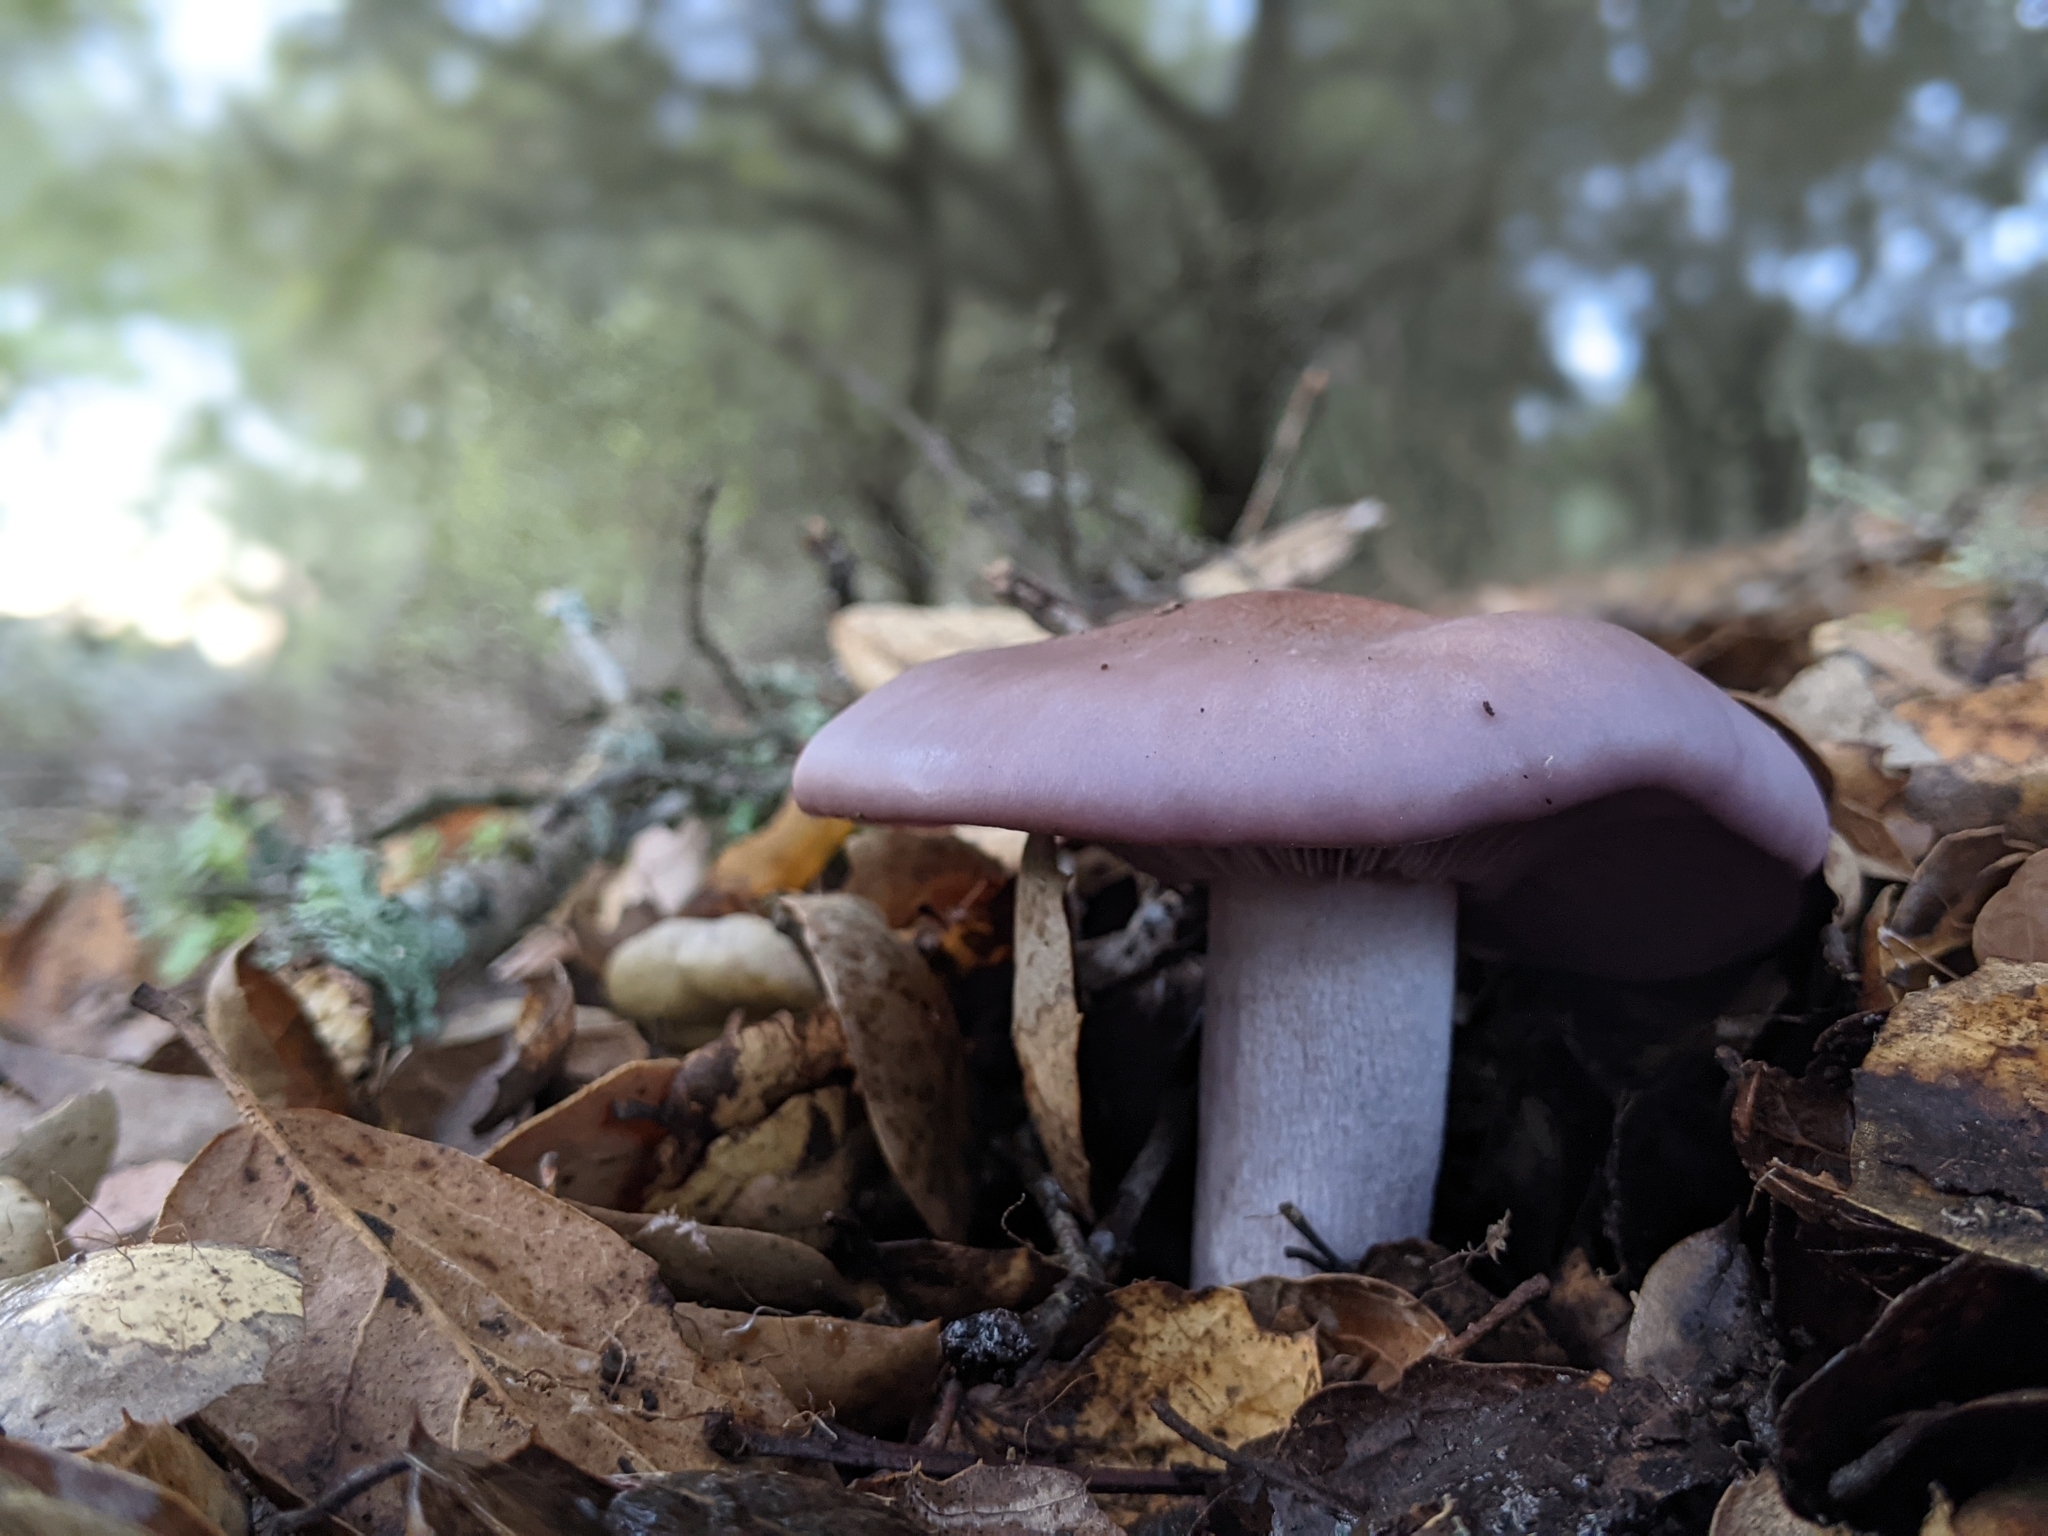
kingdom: Fungi
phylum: Basidiomycota
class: Agaricomycetes
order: Agaricales
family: Tricholomataceae
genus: Collybia
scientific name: Collybia
